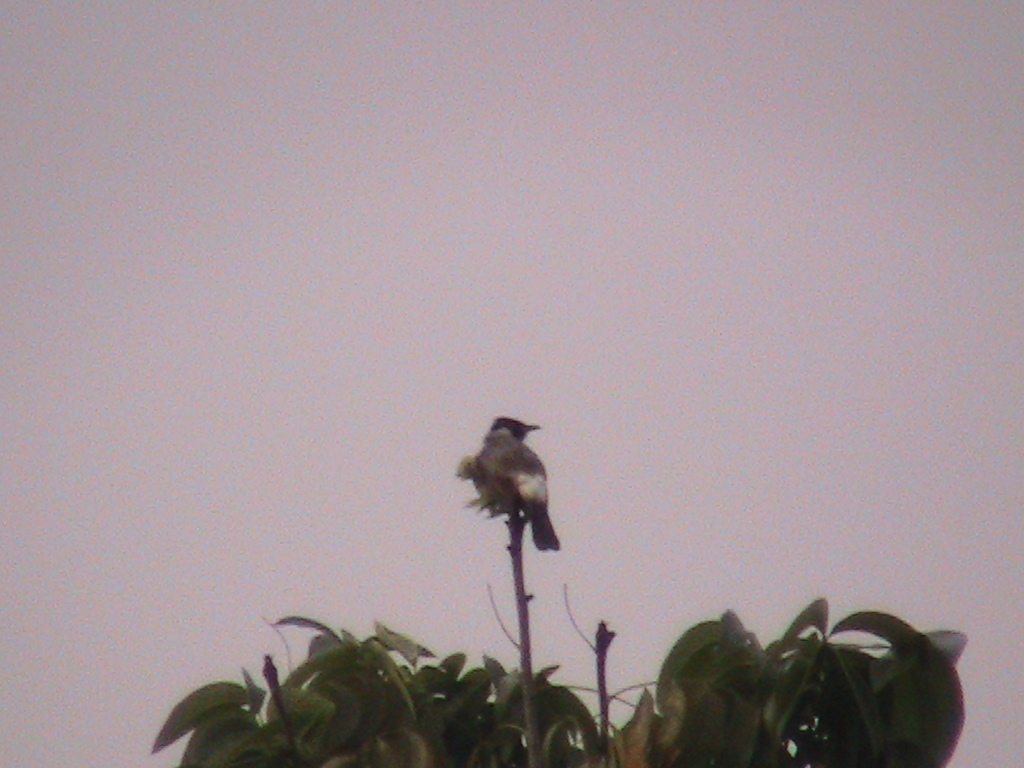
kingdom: Animalia
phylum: Chordata
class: Aves
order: Passeriformes
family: Pycnonotidae
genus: Pycnonotus
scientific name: Pycnonotus aurigaster
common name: Sooty-headed bulbul
